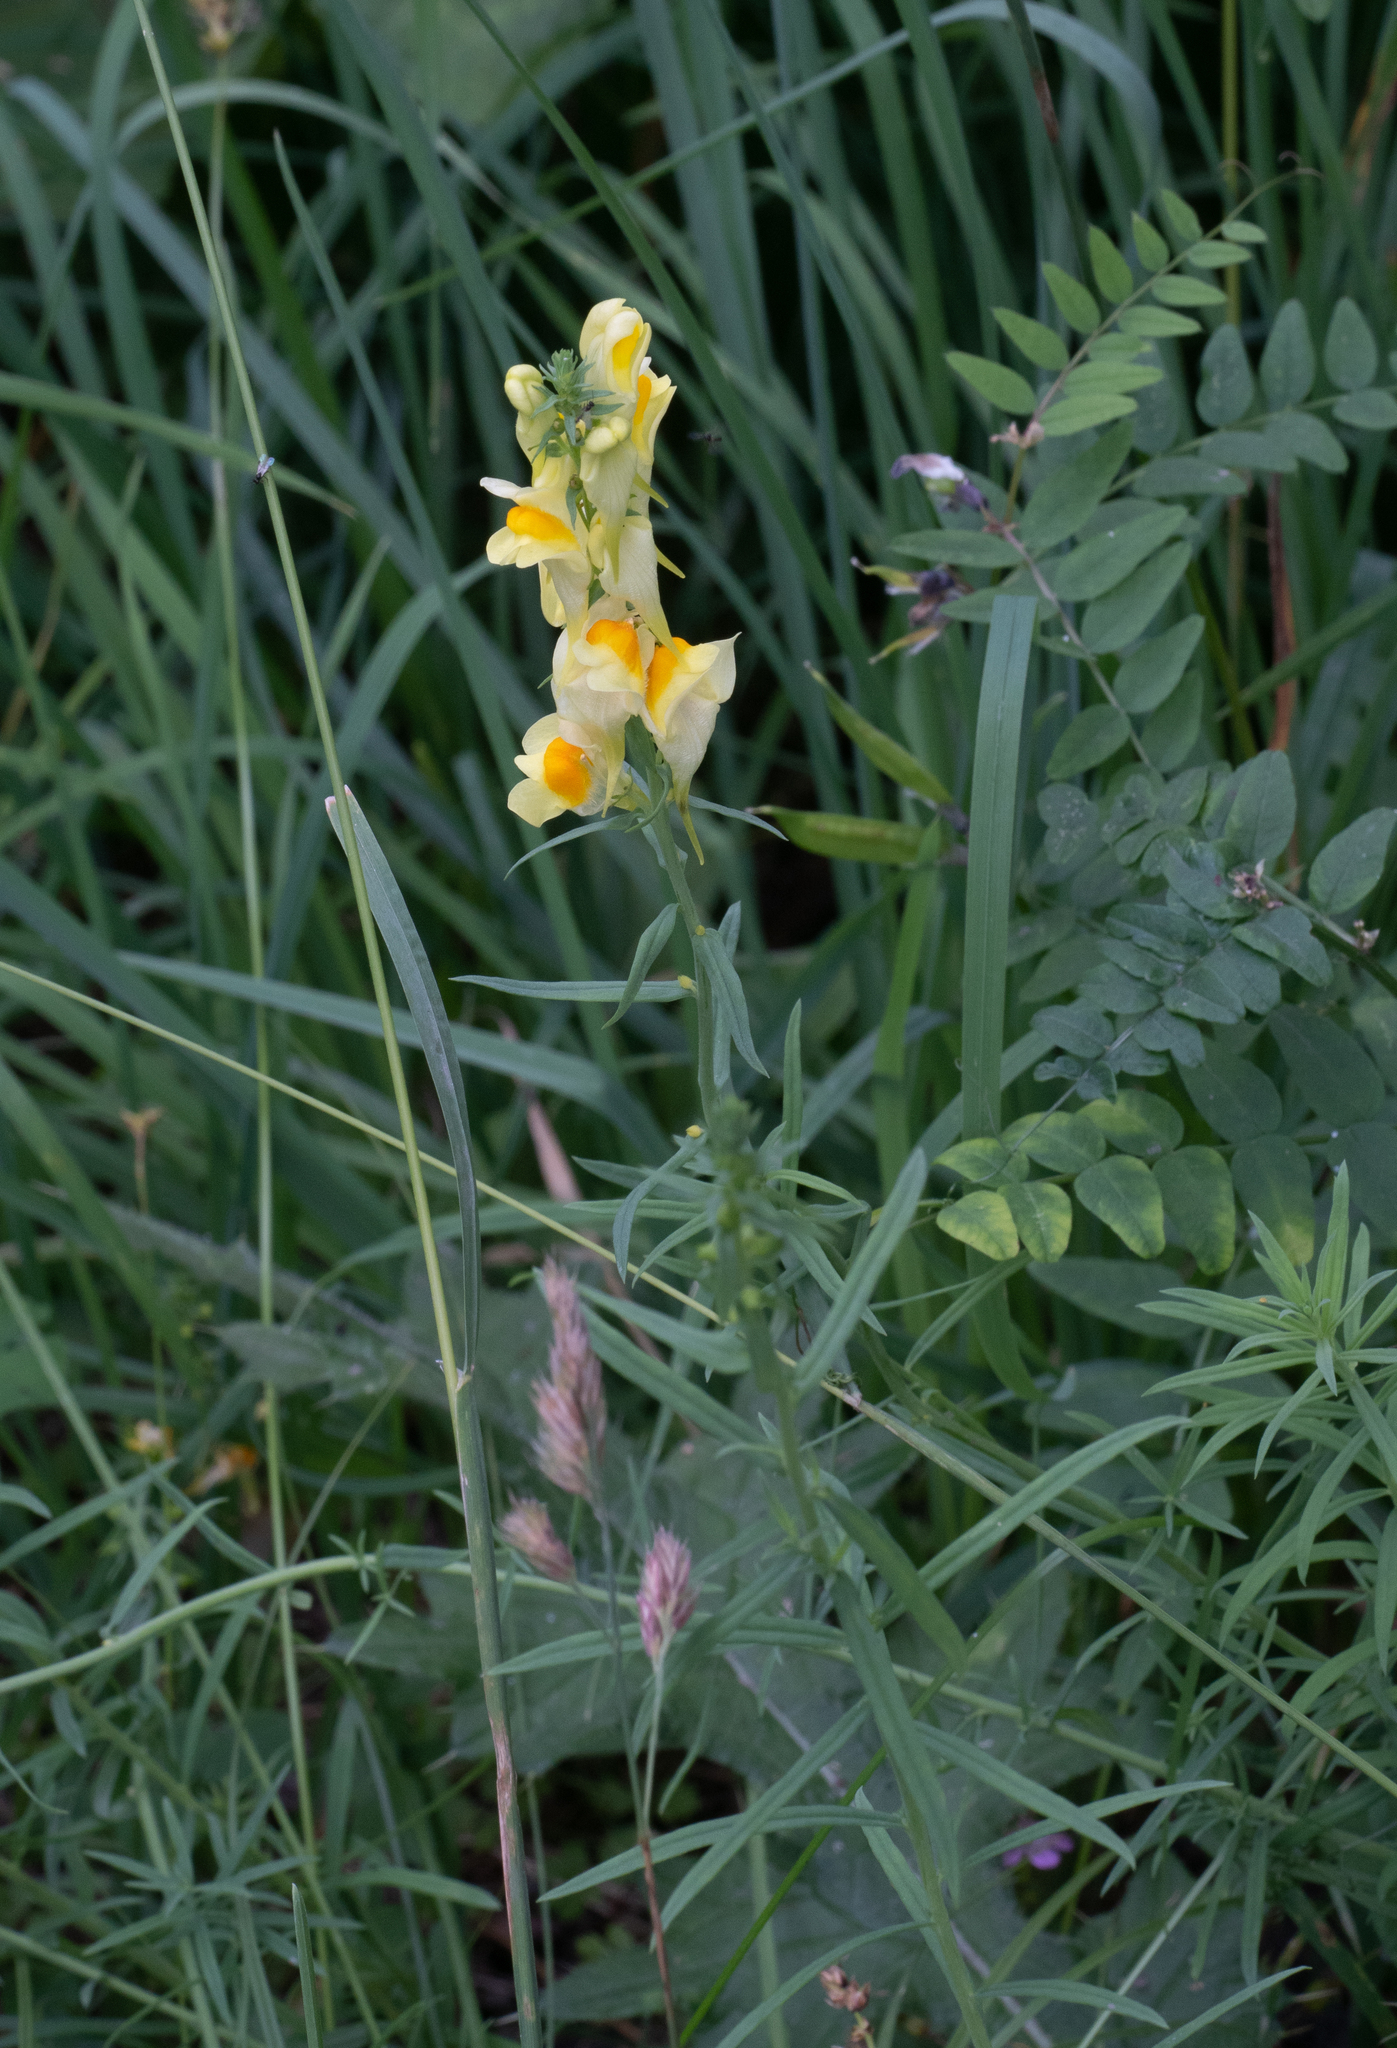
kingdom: Plantae
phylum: Tracheophyta
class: Magnoliopsida
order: Lamiales
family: Plantaginaceae
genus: Linaria
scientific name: Linaria vulgaris
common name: Butter and eggs
